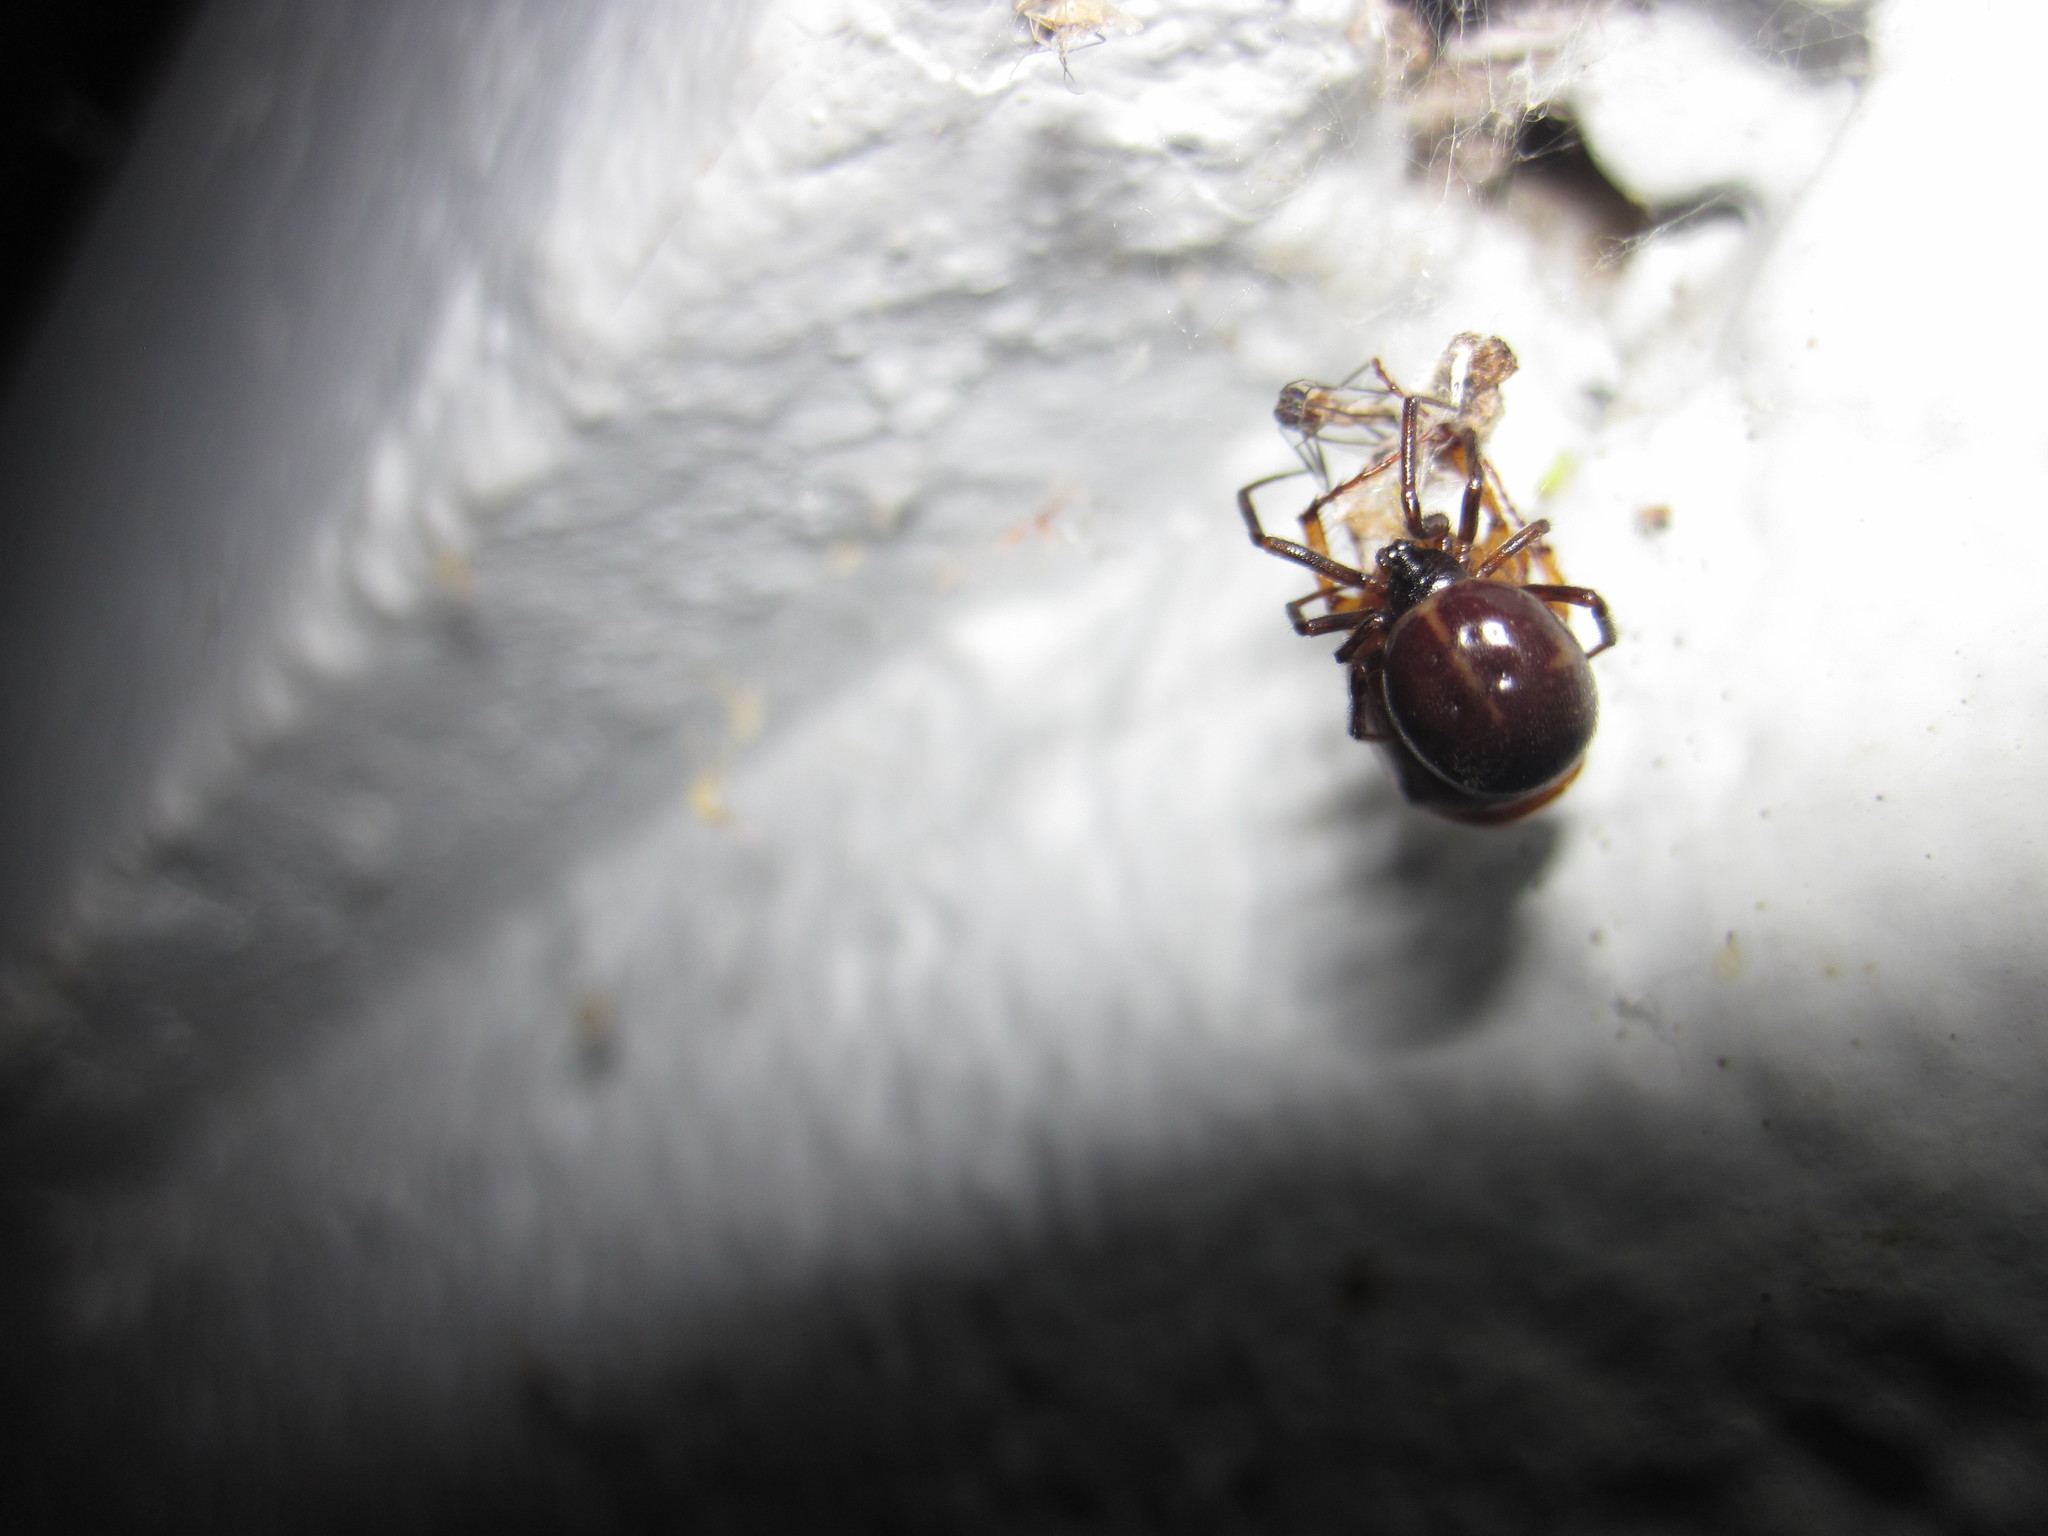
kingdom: Animalia
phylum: Arthropoda
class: Arachnida
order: Araneae
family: Theridiidae
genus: Steatoda
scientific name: Steatoda borealis
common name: Boreal combfoot
